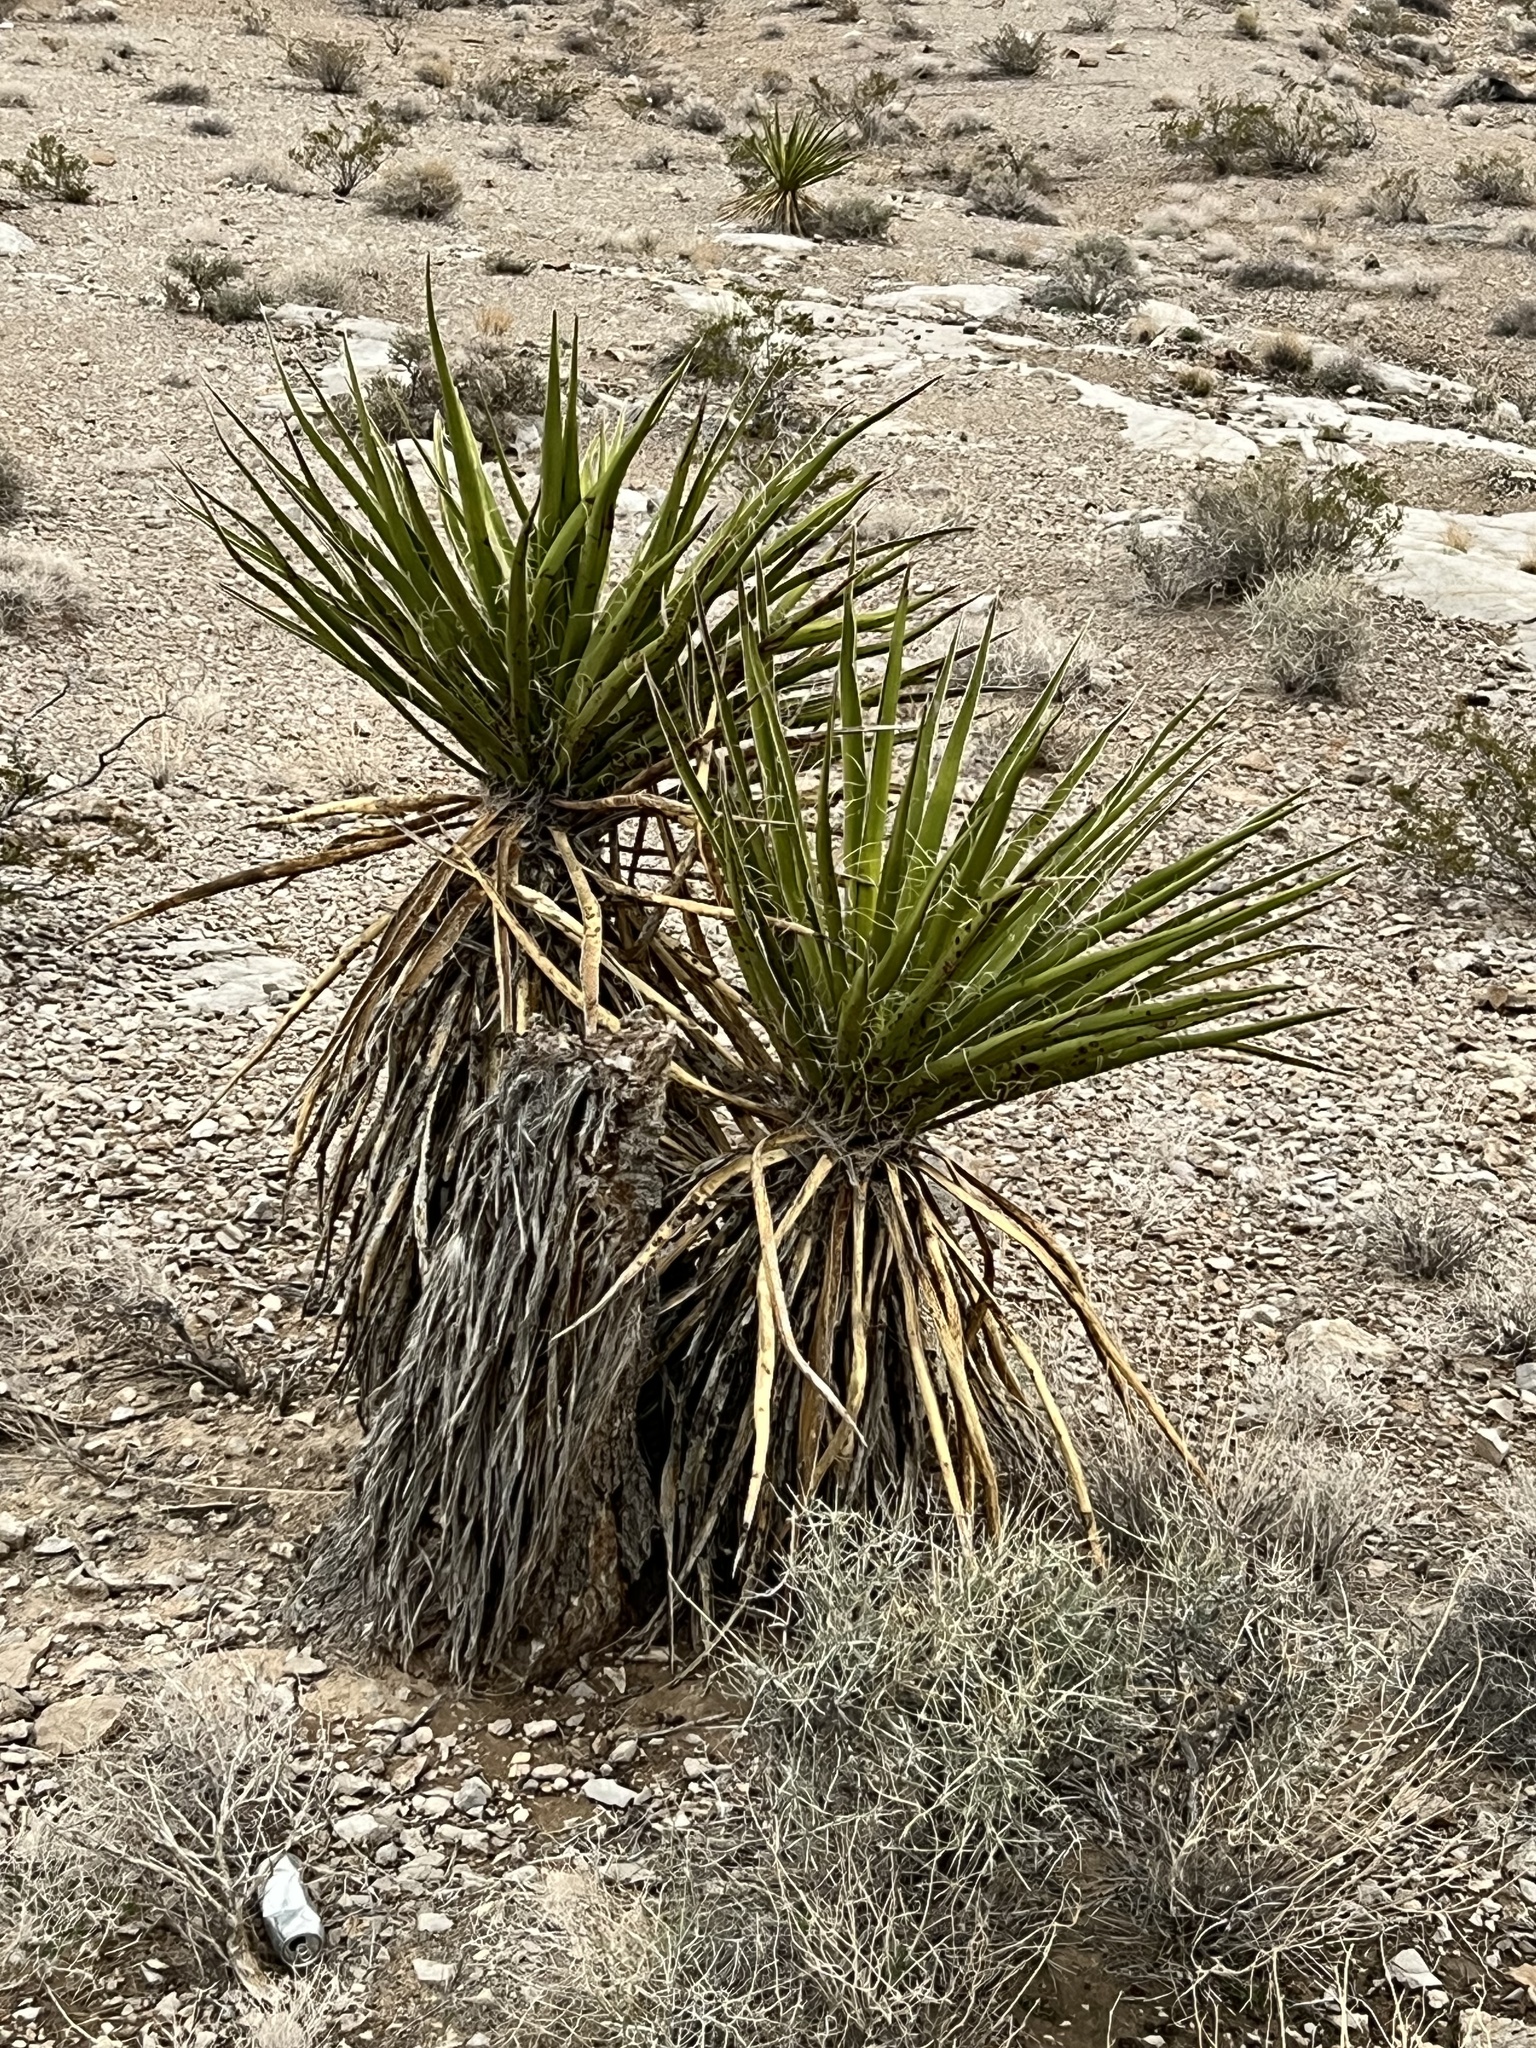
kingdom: Plantae
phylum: Tracheophyta
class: Liliopsida
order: Asparagales
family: Asparagaceae
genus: Yucca
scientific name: Yucca schidigera
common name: Mojave yucca
